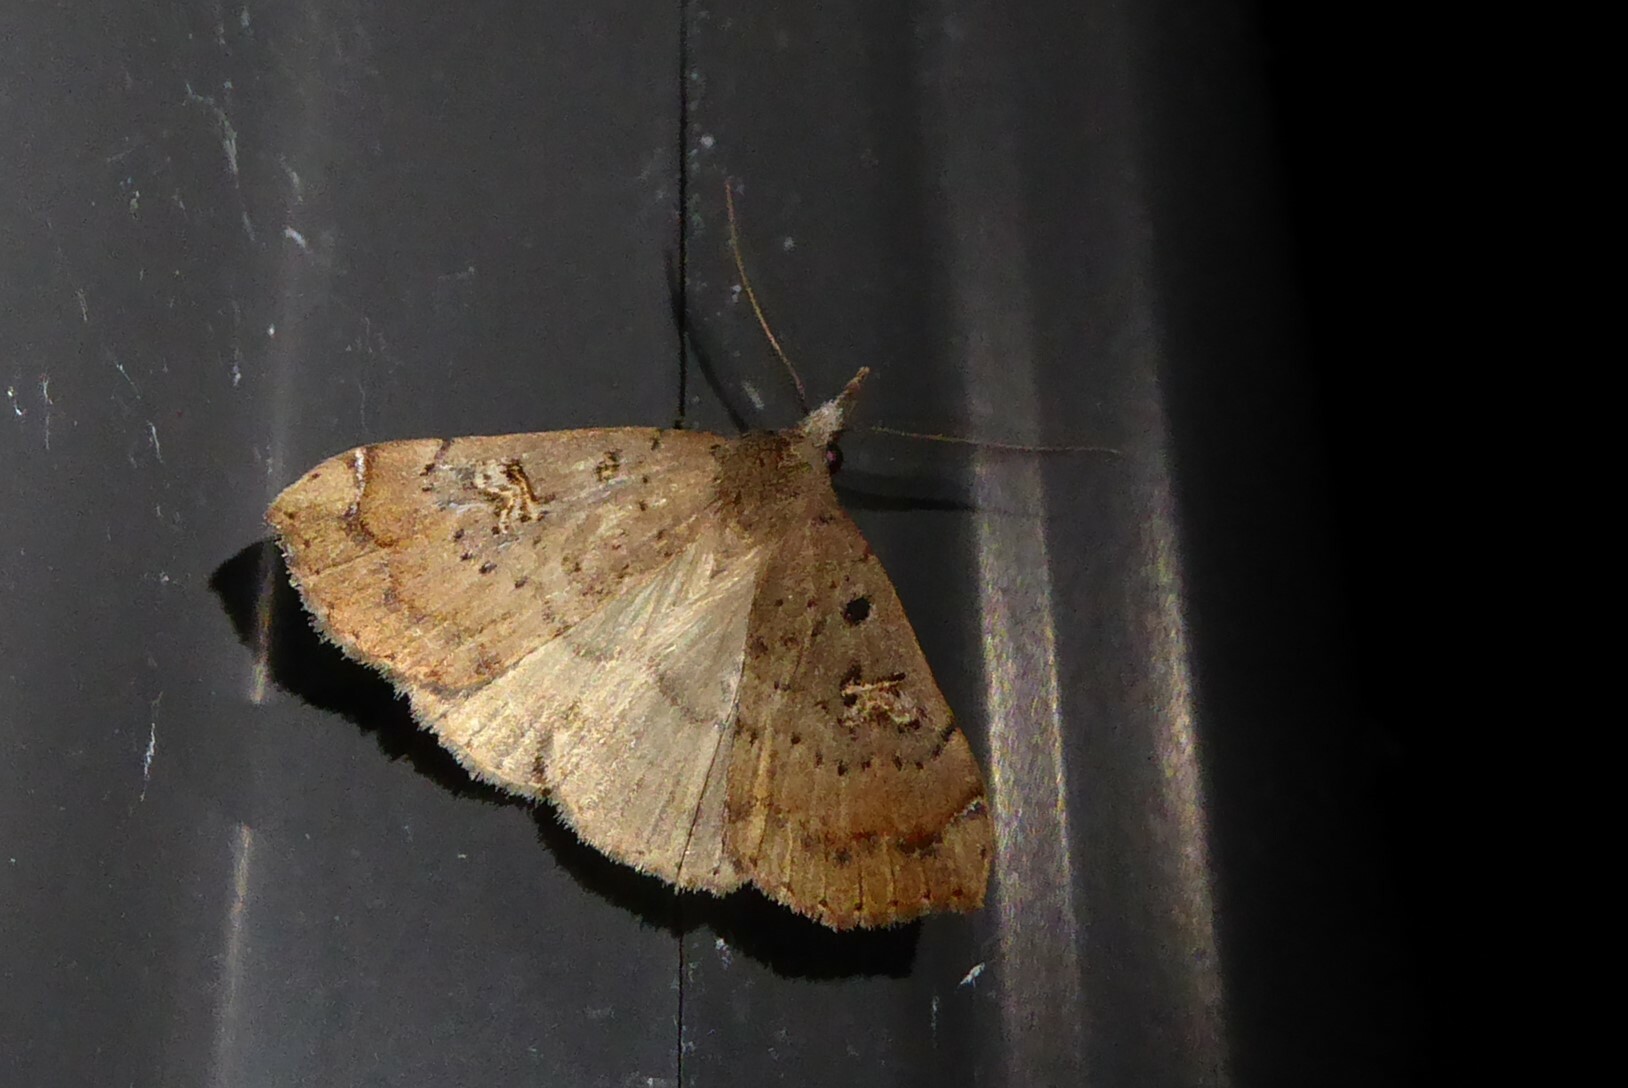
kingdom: Animalia
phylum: Arthropoda
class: Insecta
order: Lepidoptera
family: Erebidae
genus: Rhapsa
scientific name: Rhapsa scotosialis
